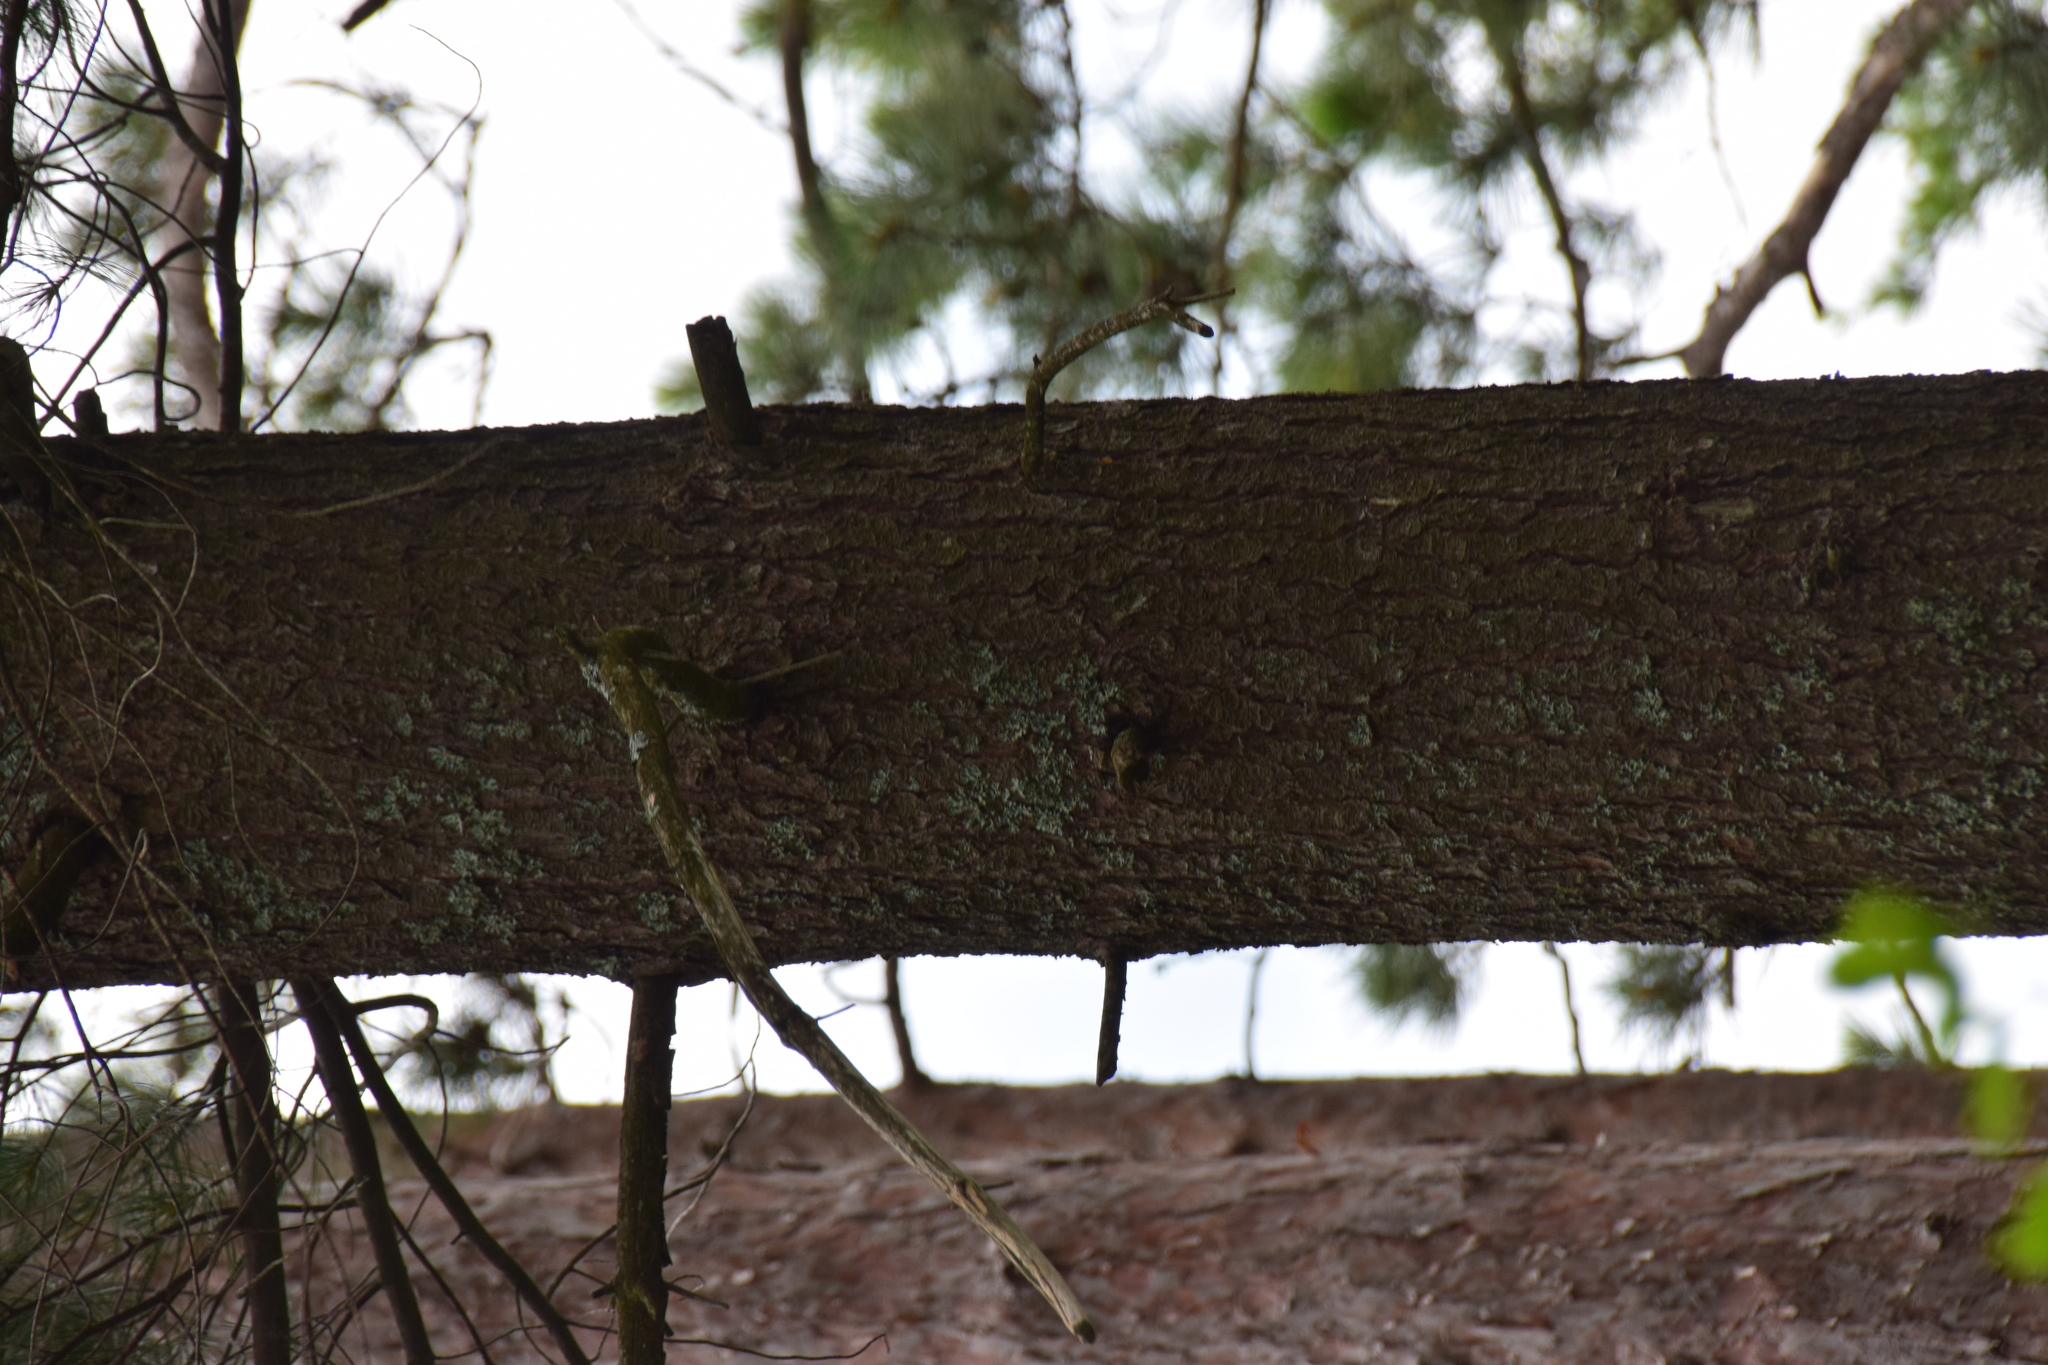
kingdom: Plantae
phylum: Tracheophyta
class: Pinopsida
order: Pinales
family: Pinaceae
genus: Pinus
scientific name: Pinus strobus
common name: Weymouth pine
